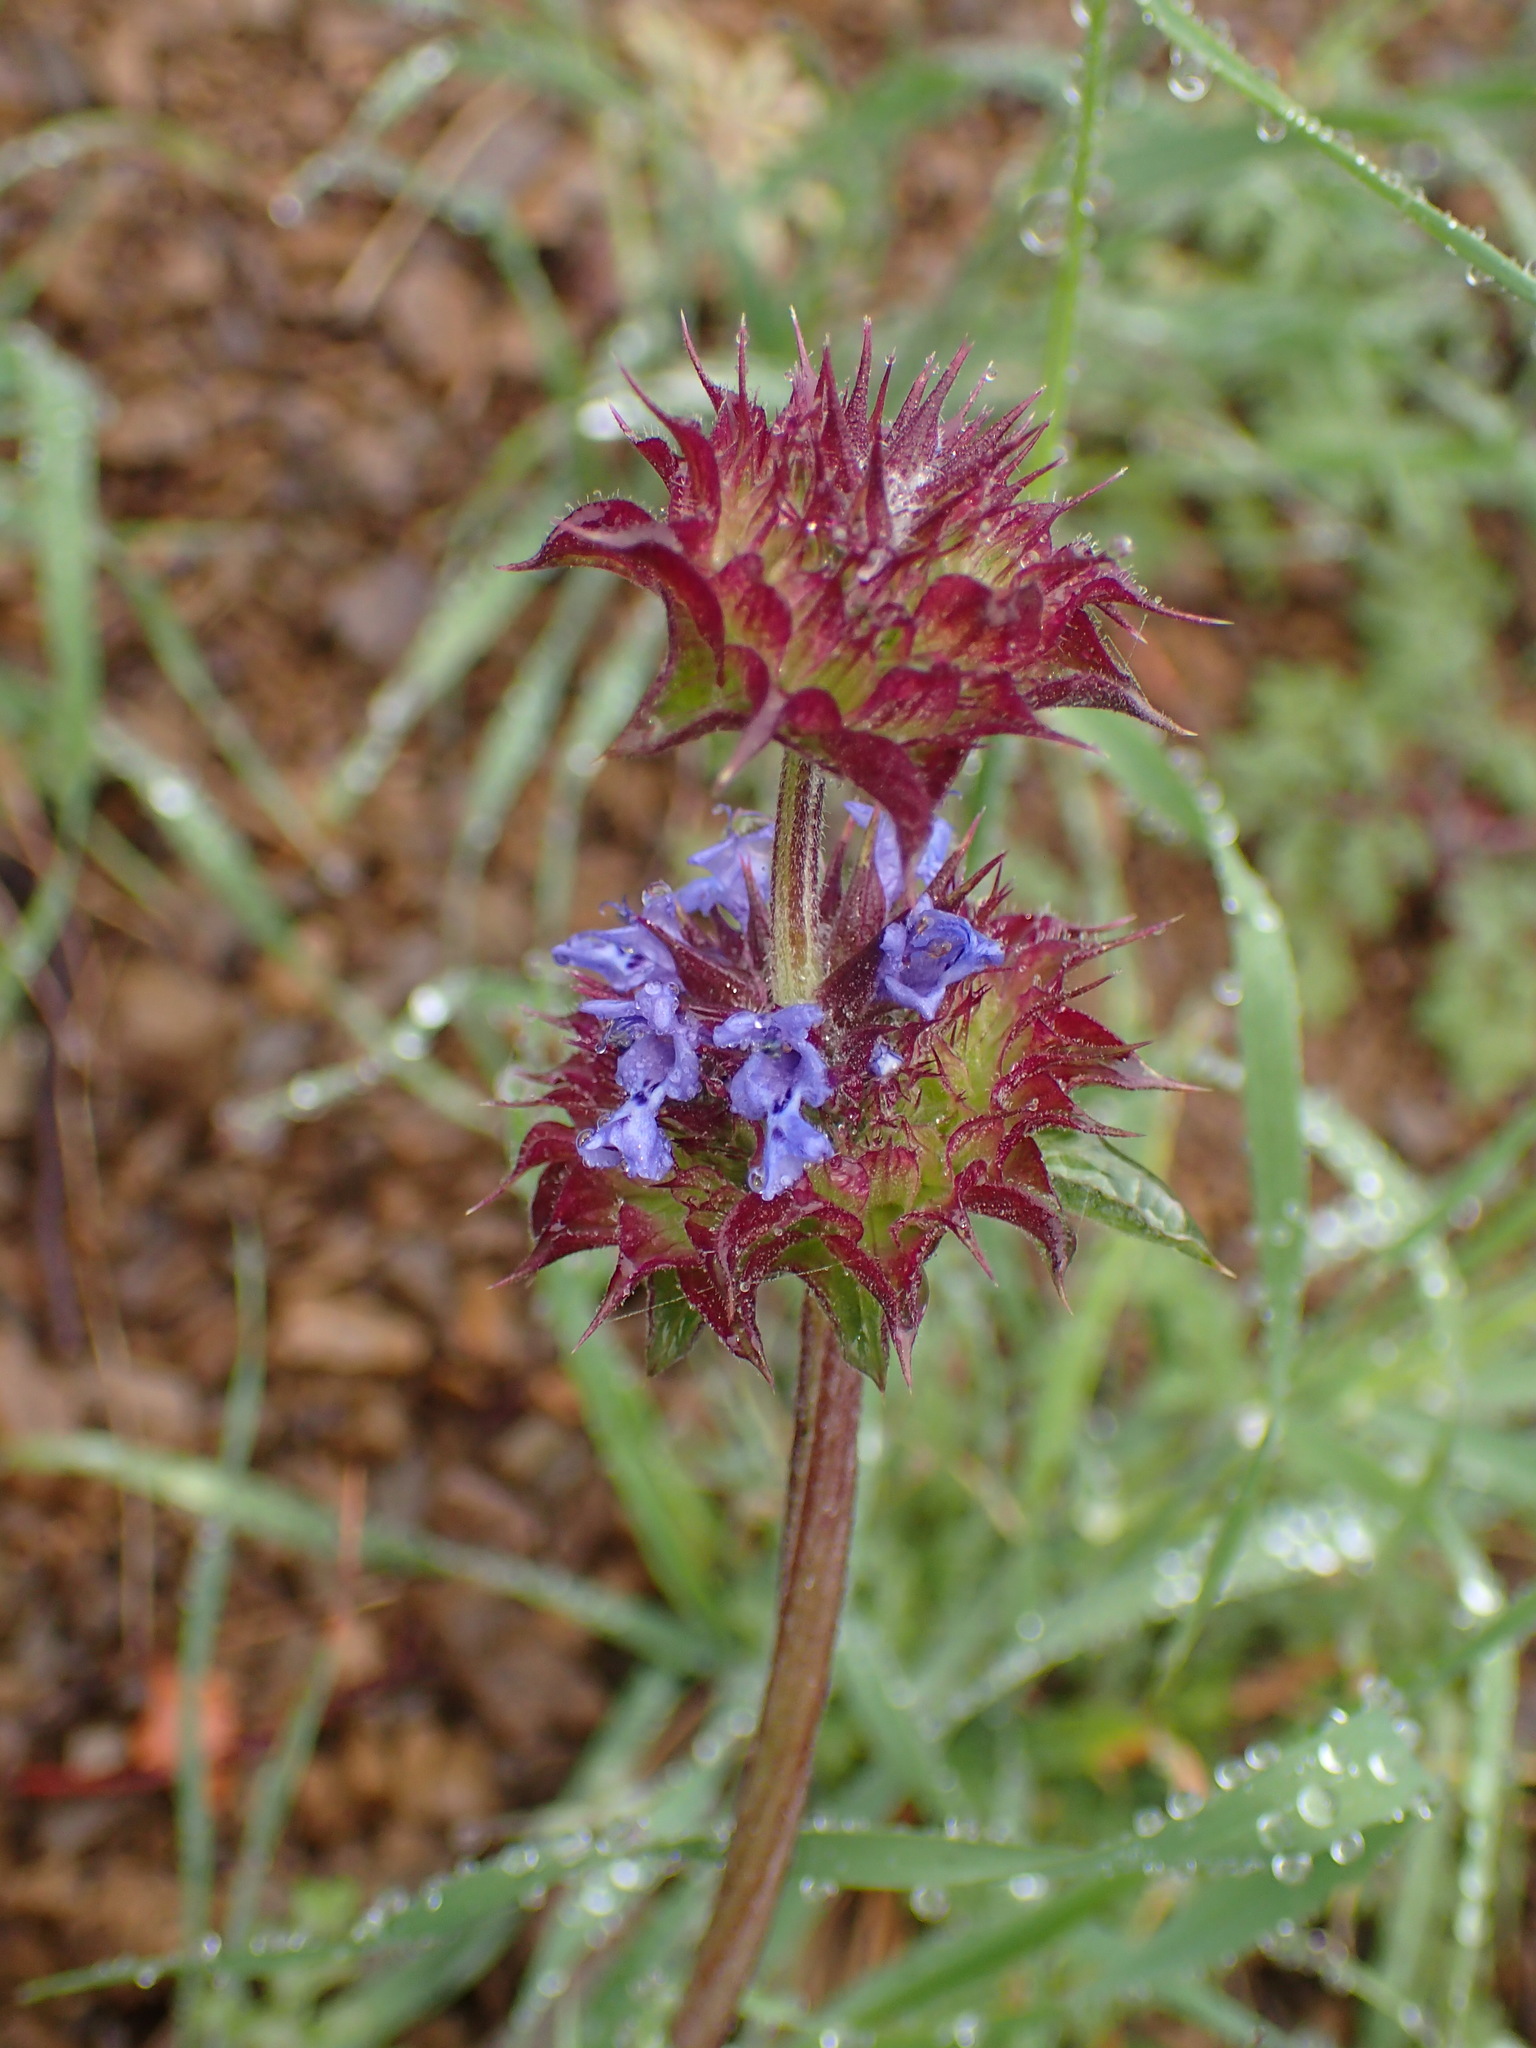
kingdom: Plantae
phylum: Tracheophyta
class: Magnoliopsida
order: Lamiales
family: Lamiaceae
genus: Salvia
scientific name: Salvia columbariae
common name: Chia
